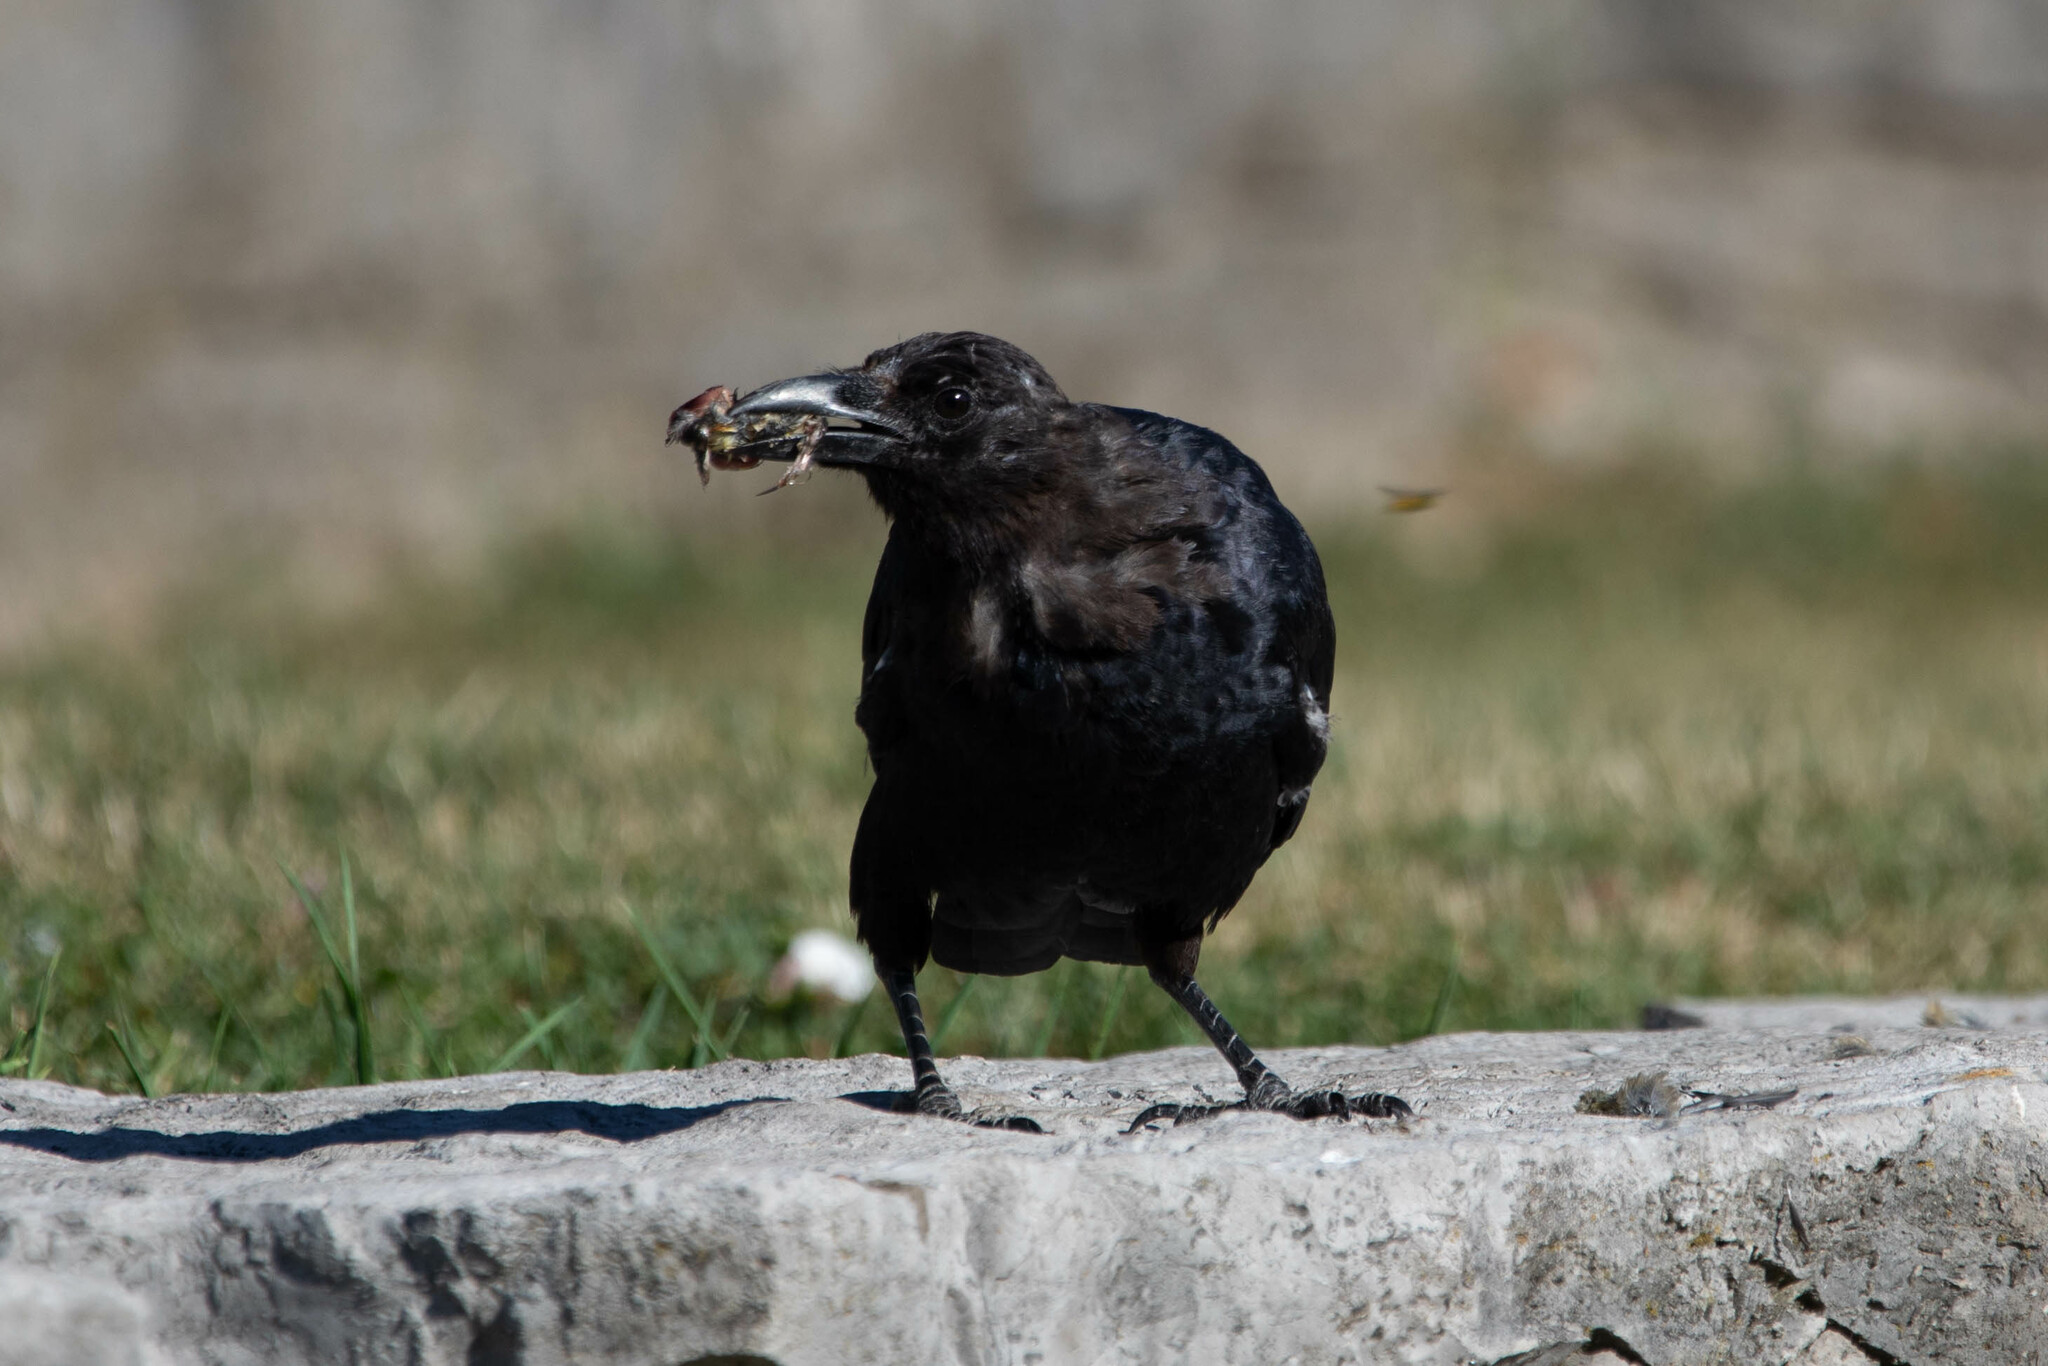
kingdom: Animalia
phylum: Chordata
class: Aves
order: Passeriformes
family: Corvidae
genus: Corvus
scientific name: Corvus brachyrhynchos
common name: American crow
